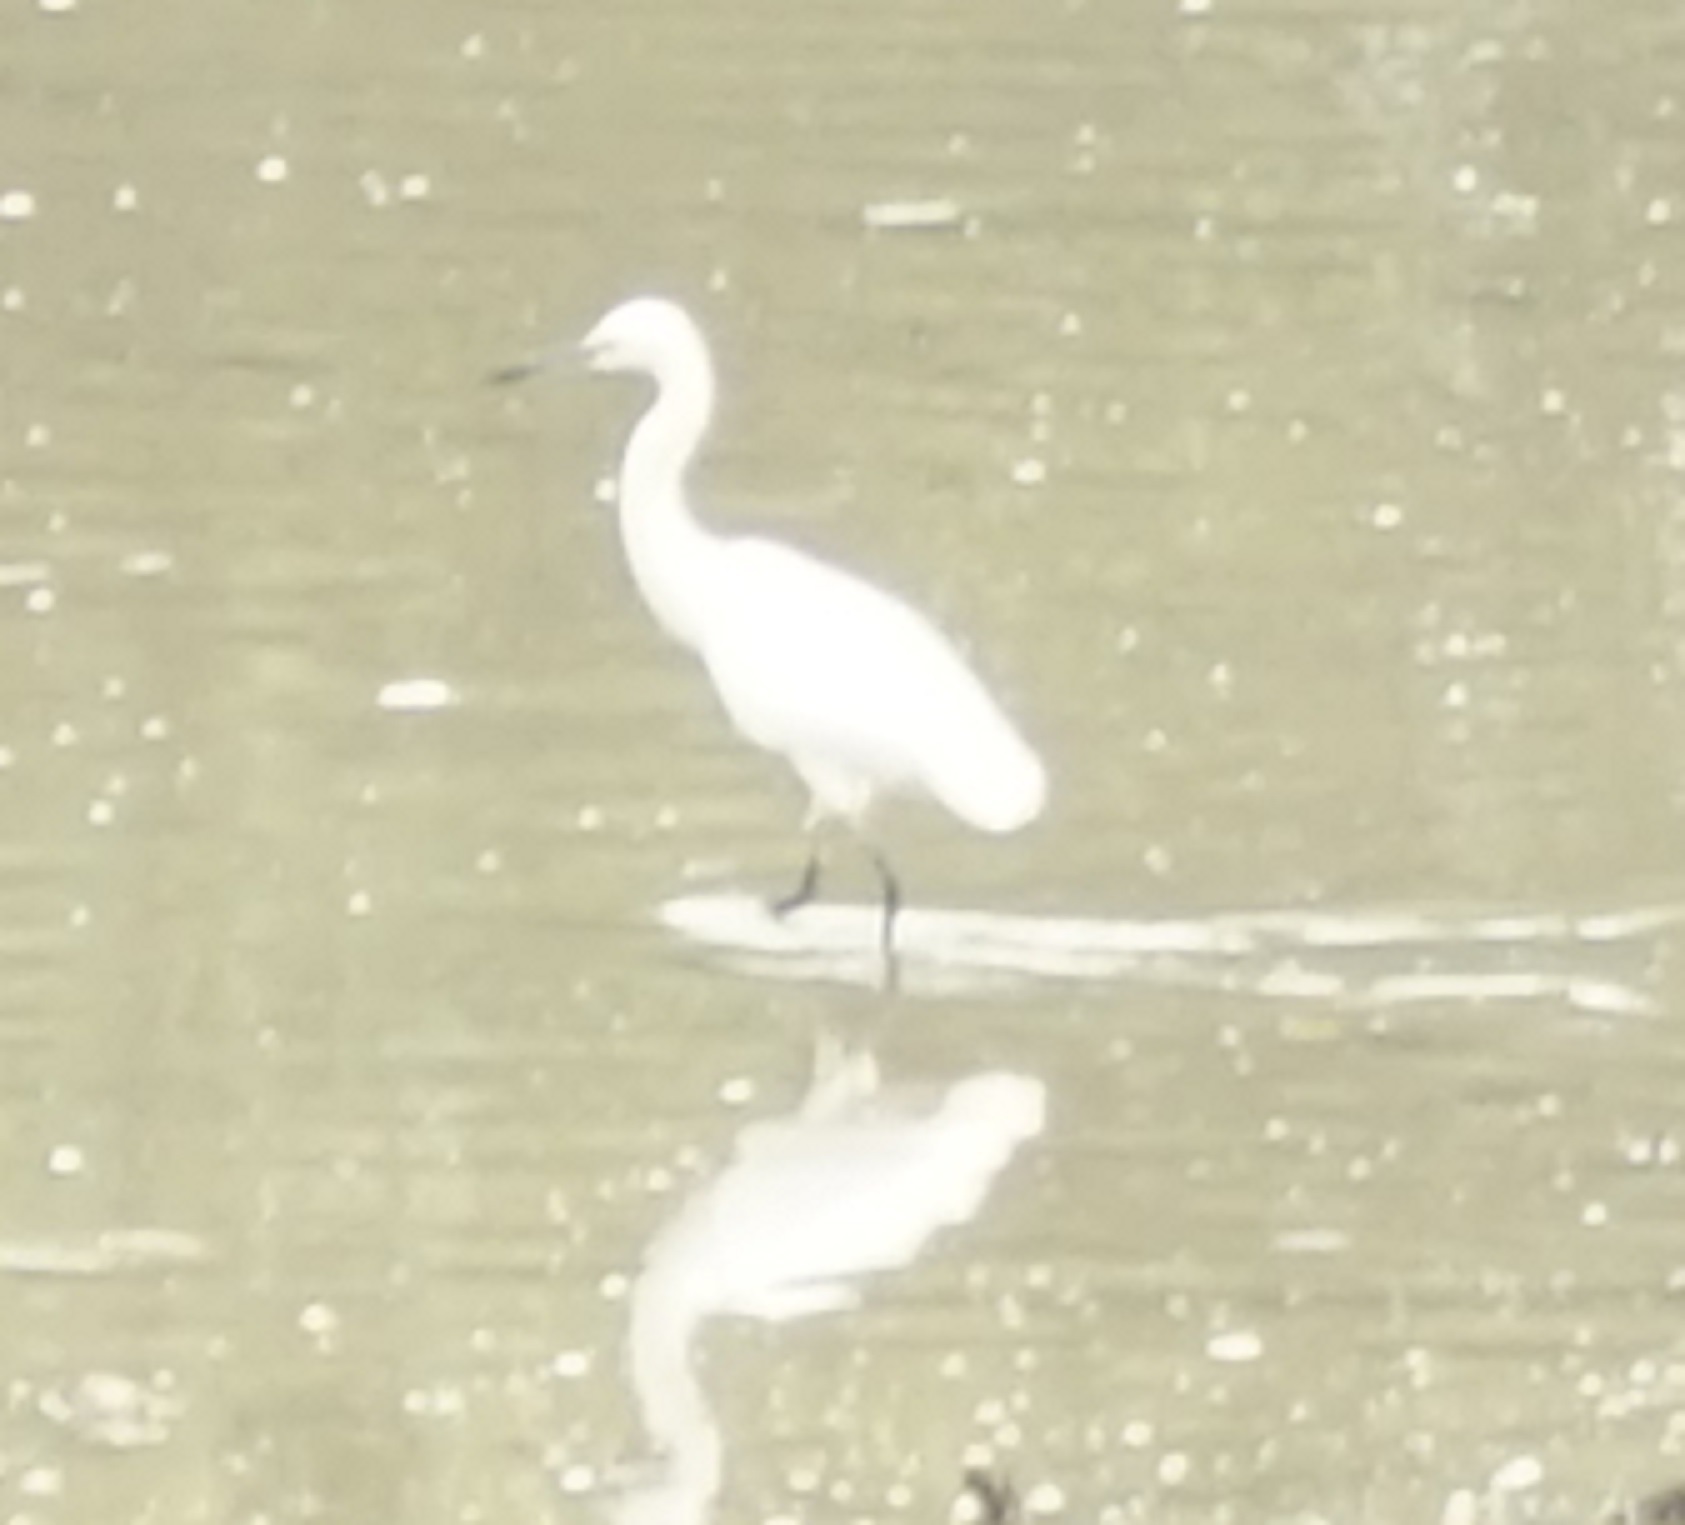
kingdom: Animalia
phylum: Chordata
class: Aves
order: Pelecaniformes
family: Ardeidae
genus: Egretta
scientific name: Egretta garzetta
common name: Little egret
